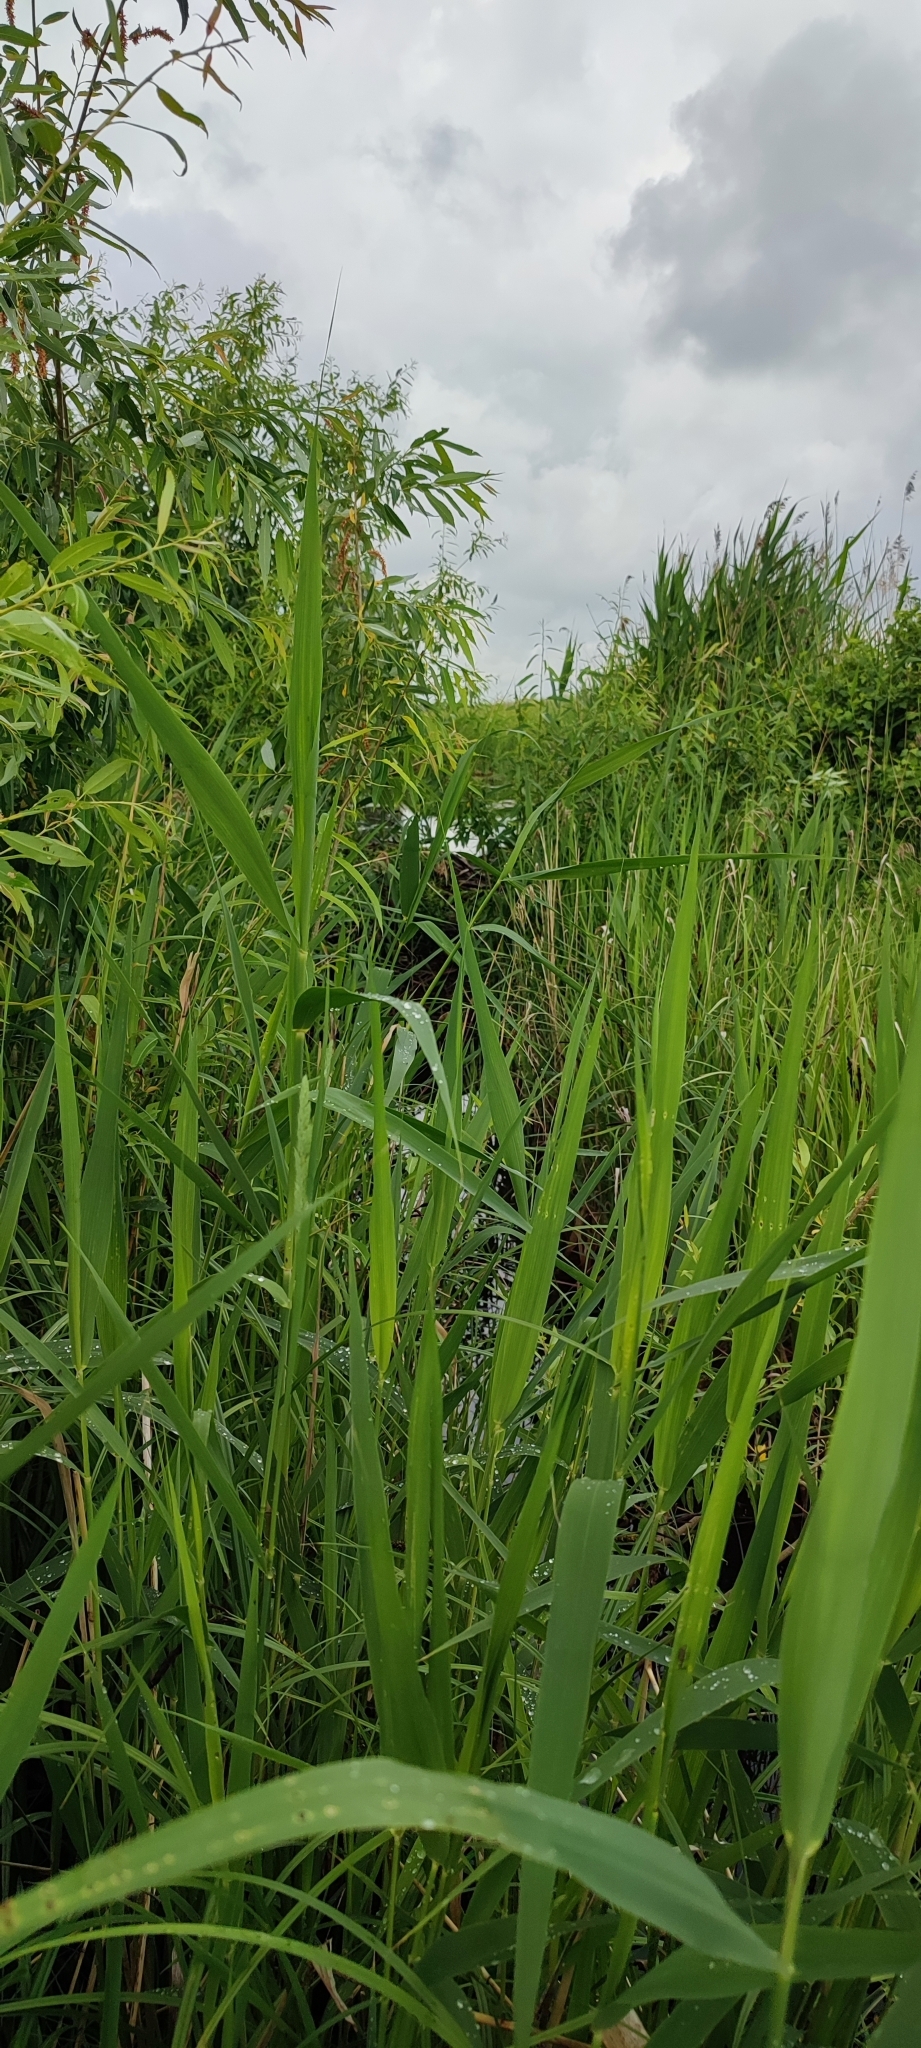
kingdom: Plantae
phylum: Tracheophyta
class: Liliopsida
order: Poales
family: Poaceae
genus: Phragmites
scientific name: Phragmites australis
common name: Common reed
